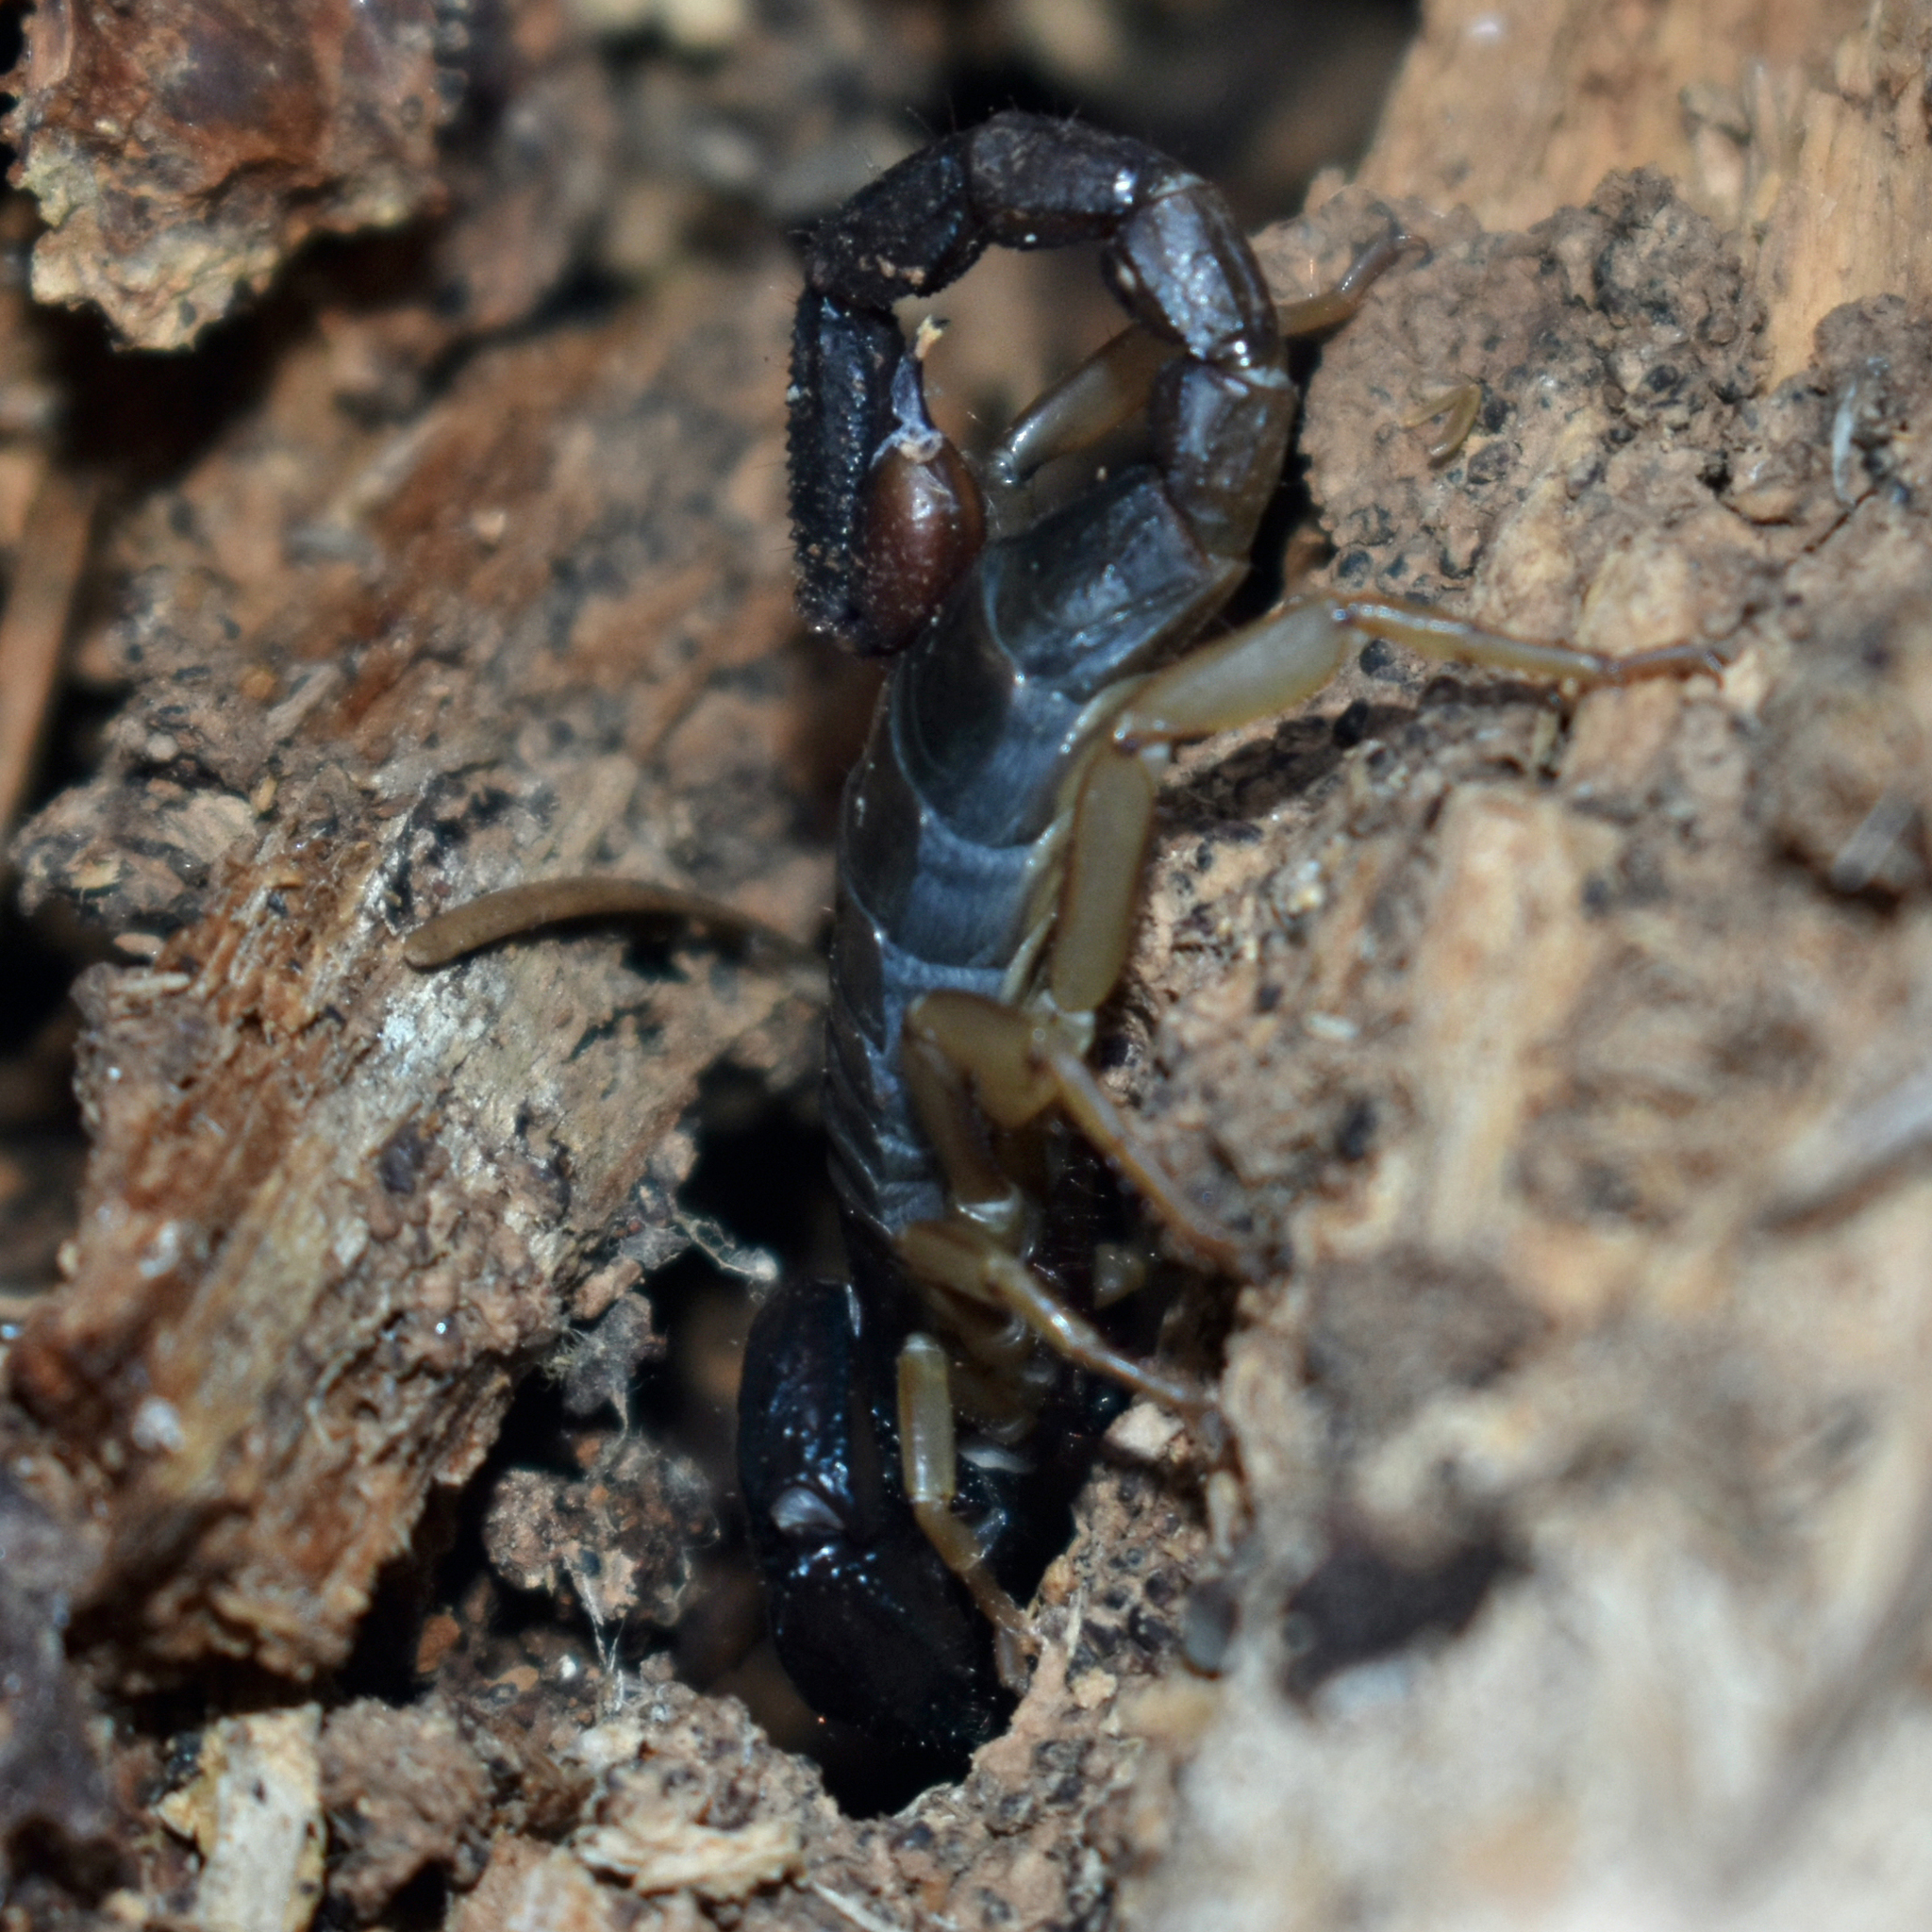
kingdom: Animalia
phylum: Arthropoda
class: Arachnida
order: Scorpiones
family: Chactidae
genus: Uroctonus
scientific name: Uroctonus mordax
